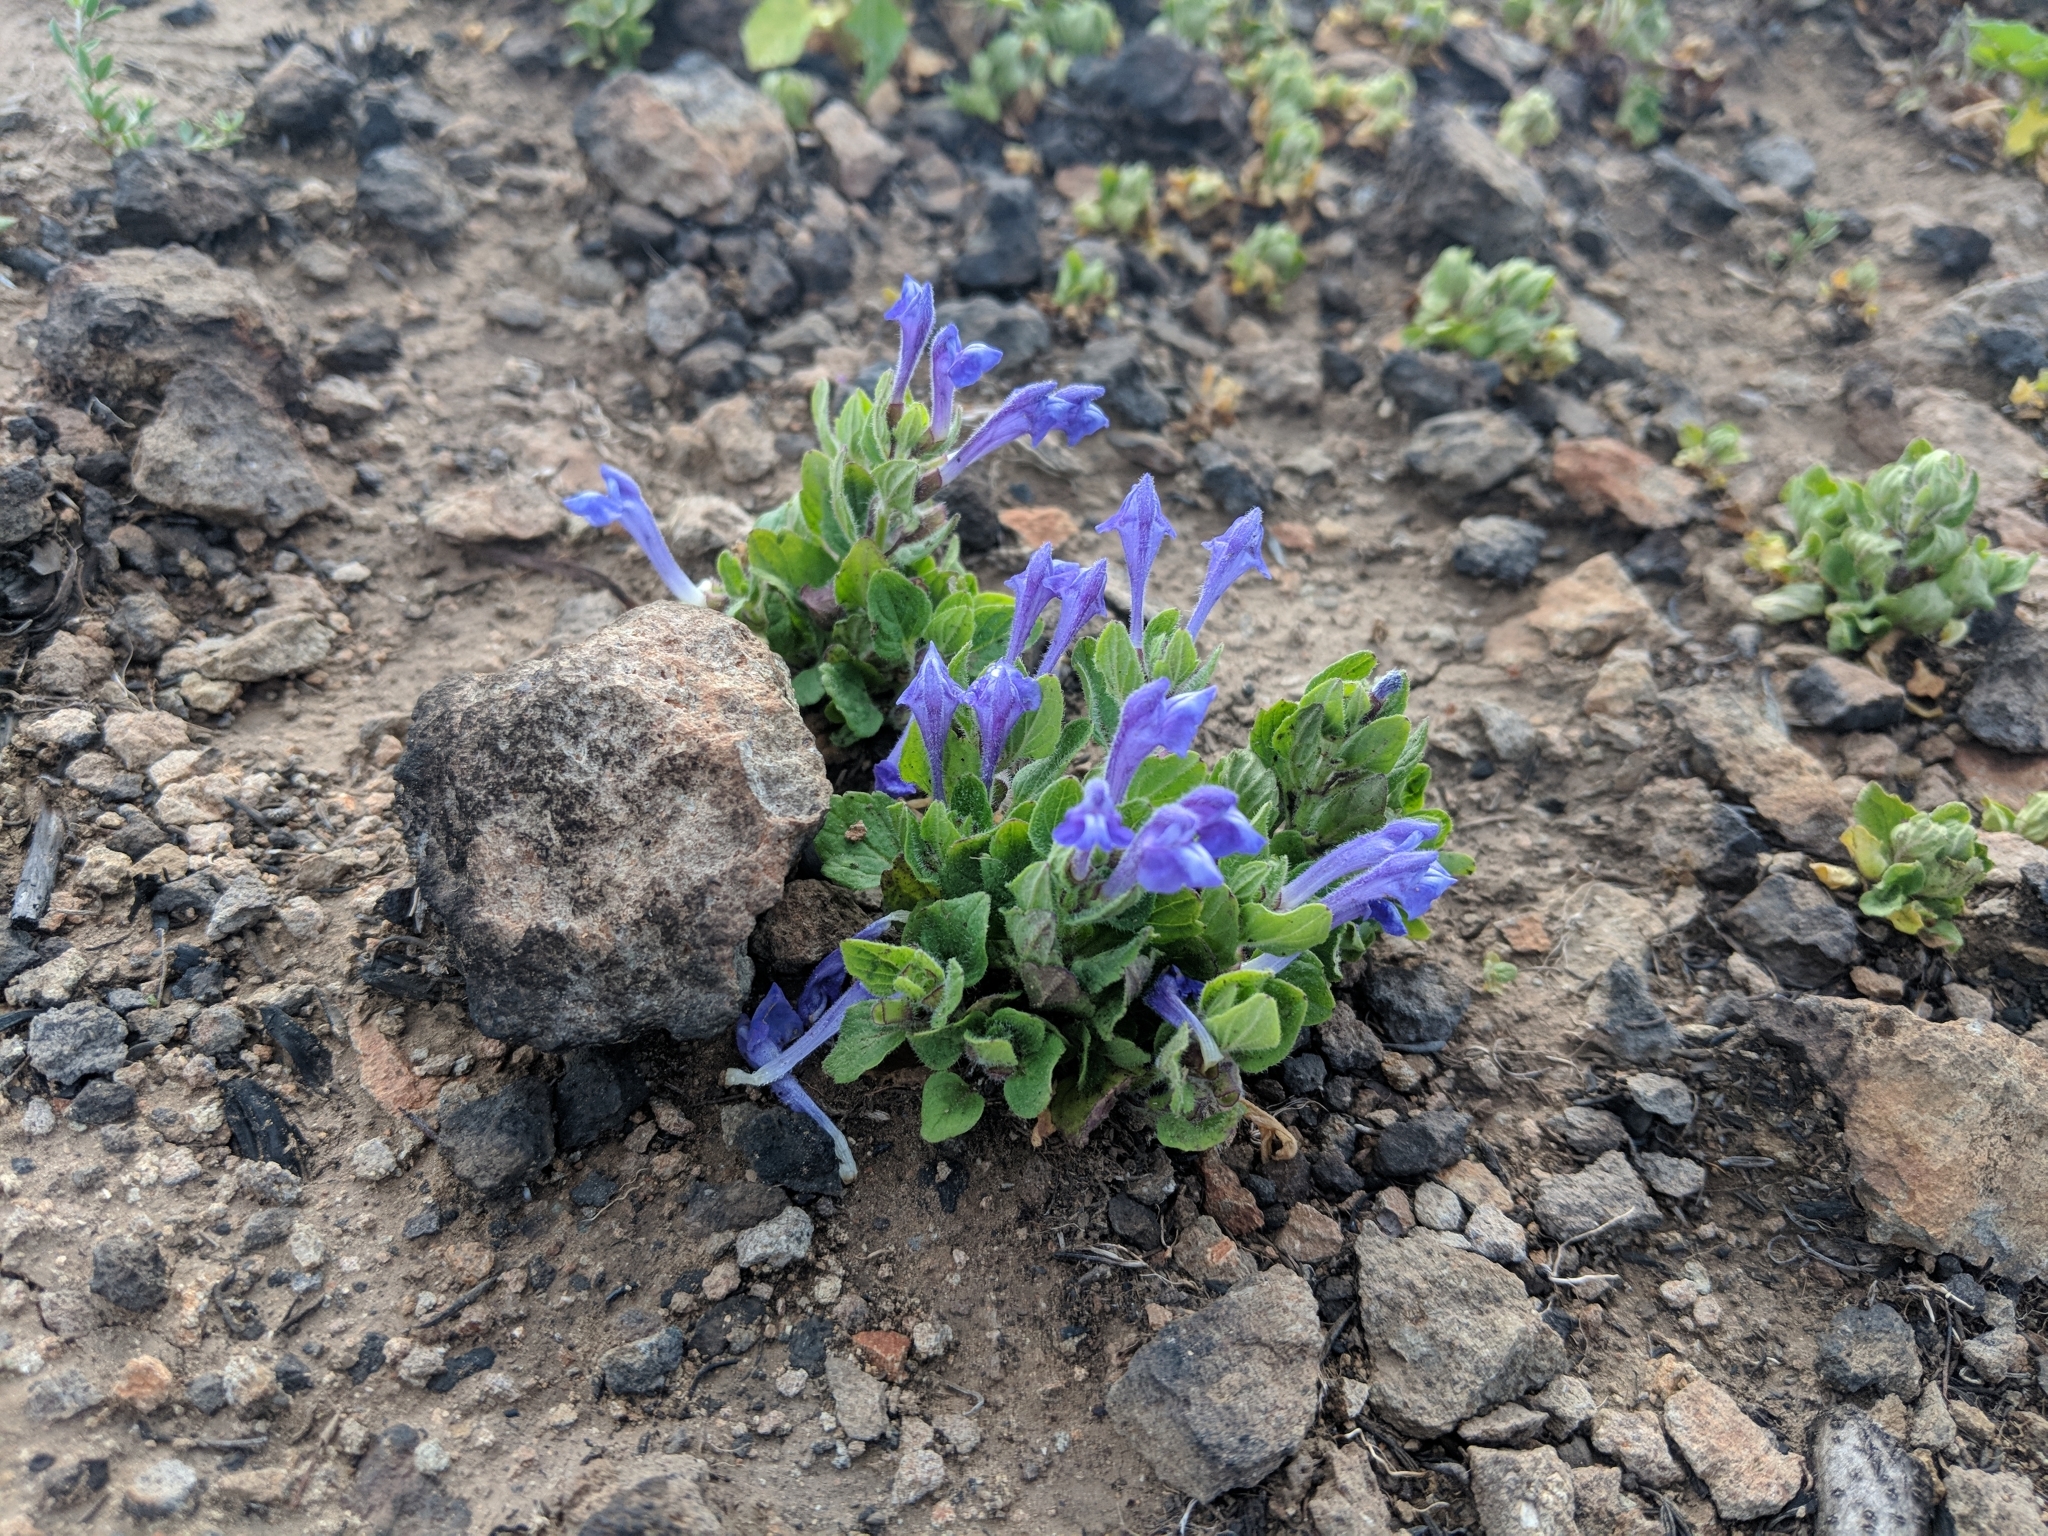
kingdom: Plantae
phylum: Tracheophyta
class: Magnoliopsida
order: Lamiales
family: Lamiaceae
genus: Scutellaria
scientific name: Scutellaria tuberosa
